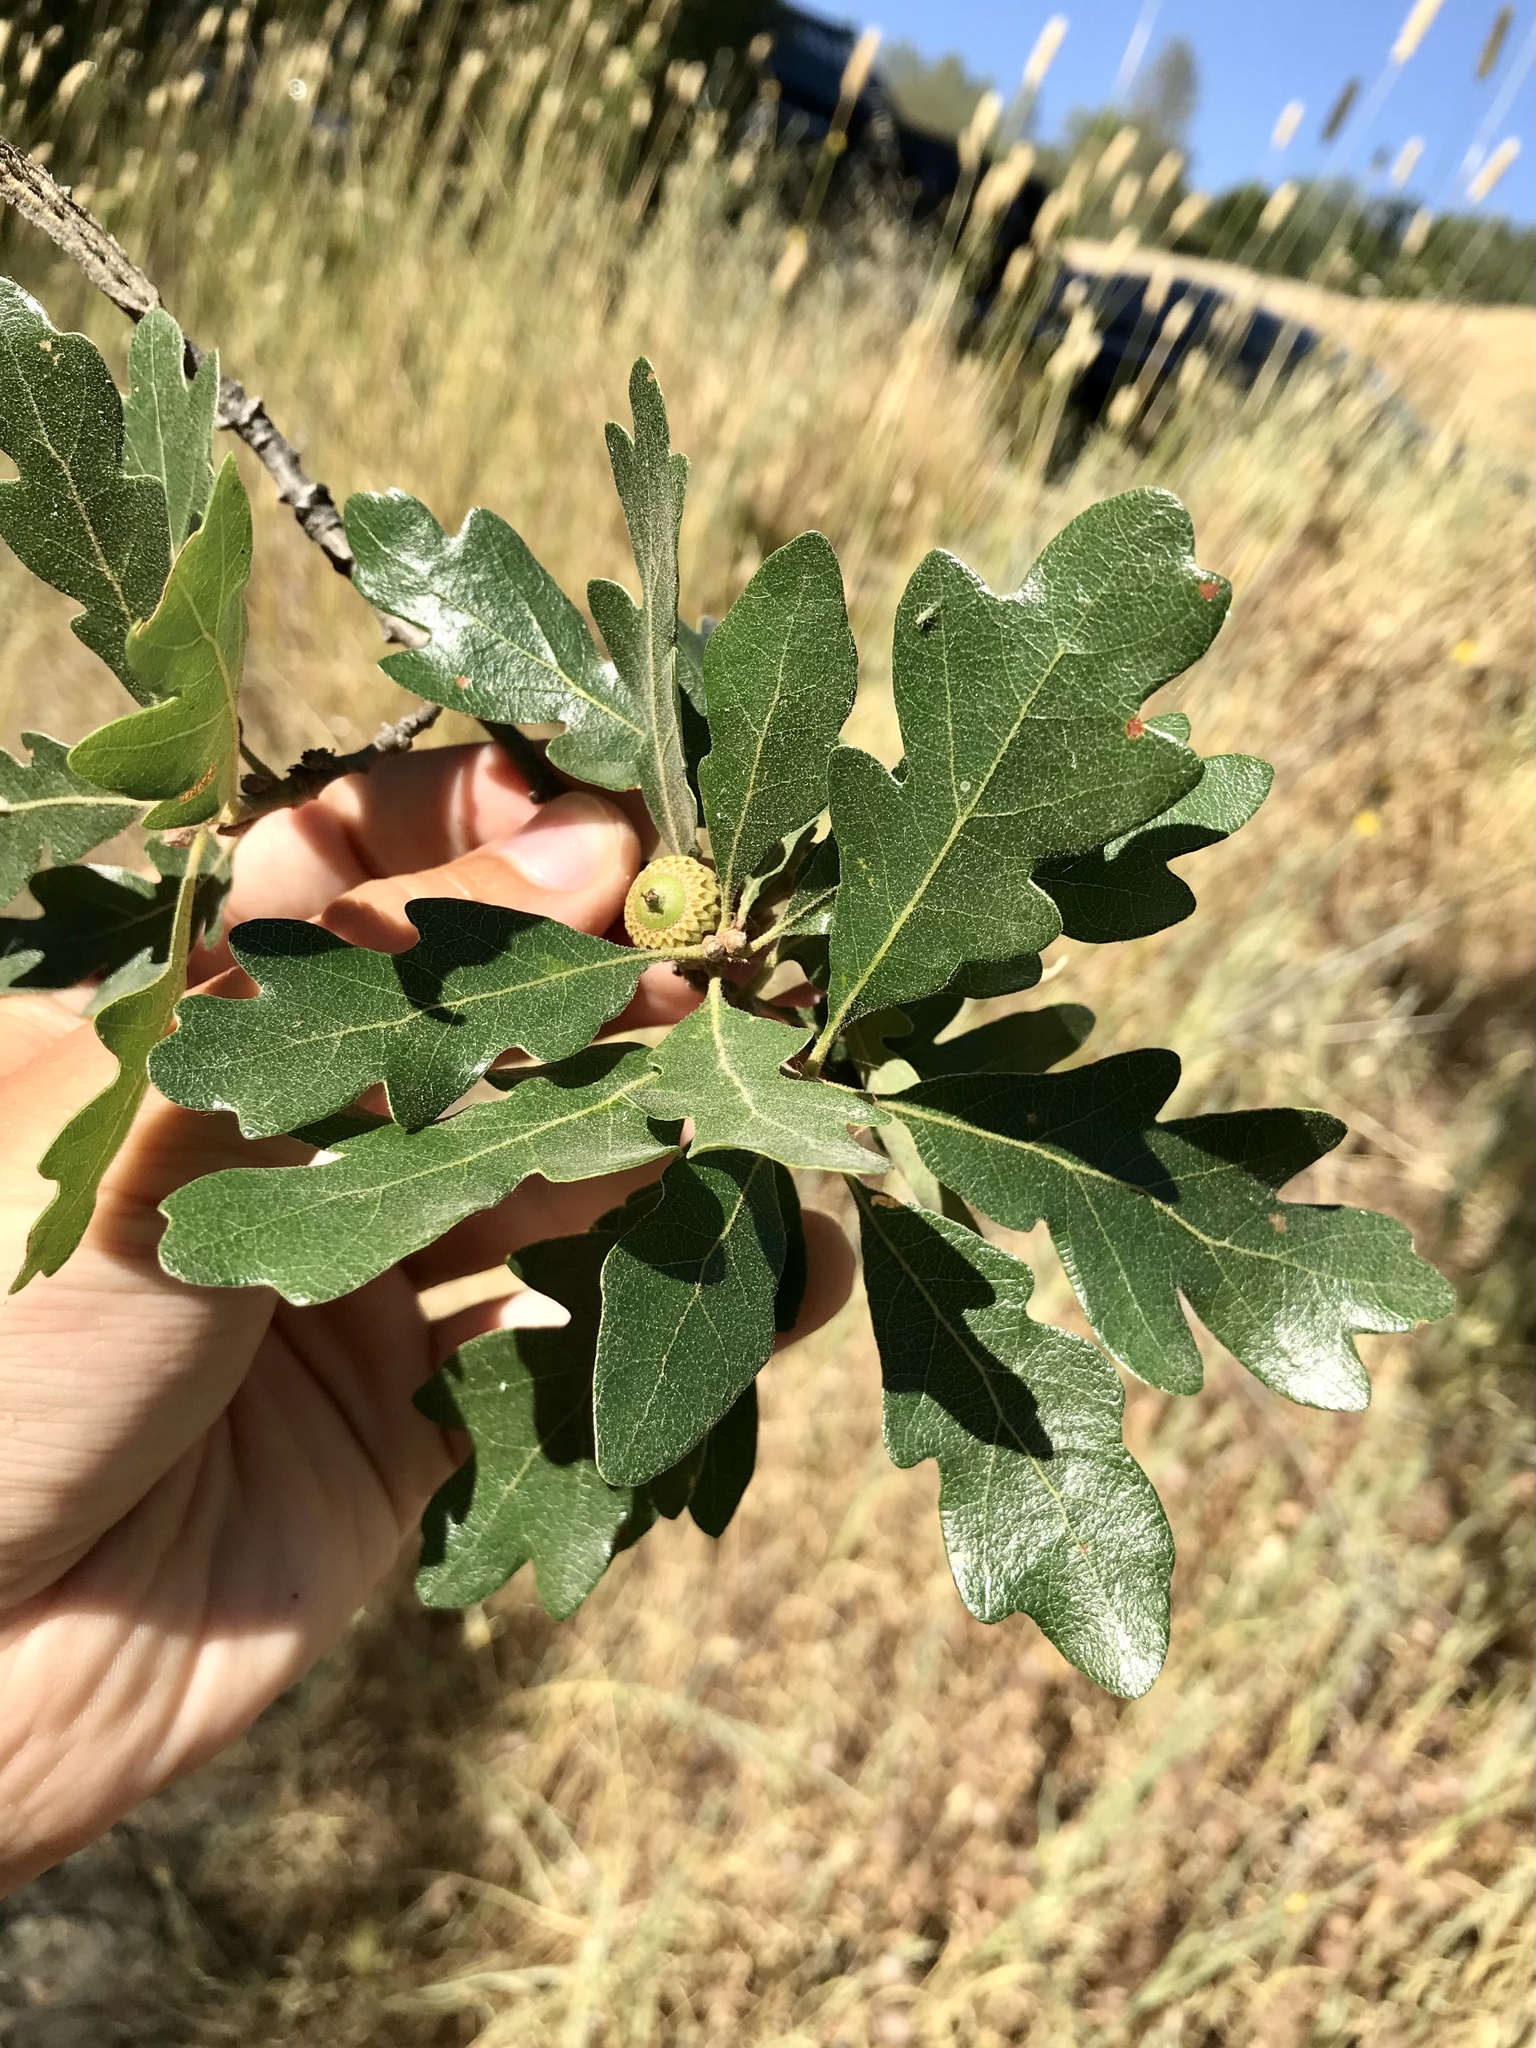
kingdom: Plantae
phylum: Tracheophyta
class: Magnoliopsida
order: Fagales
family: Fagaceae
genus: Quercus
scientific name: Quercus eplingii
